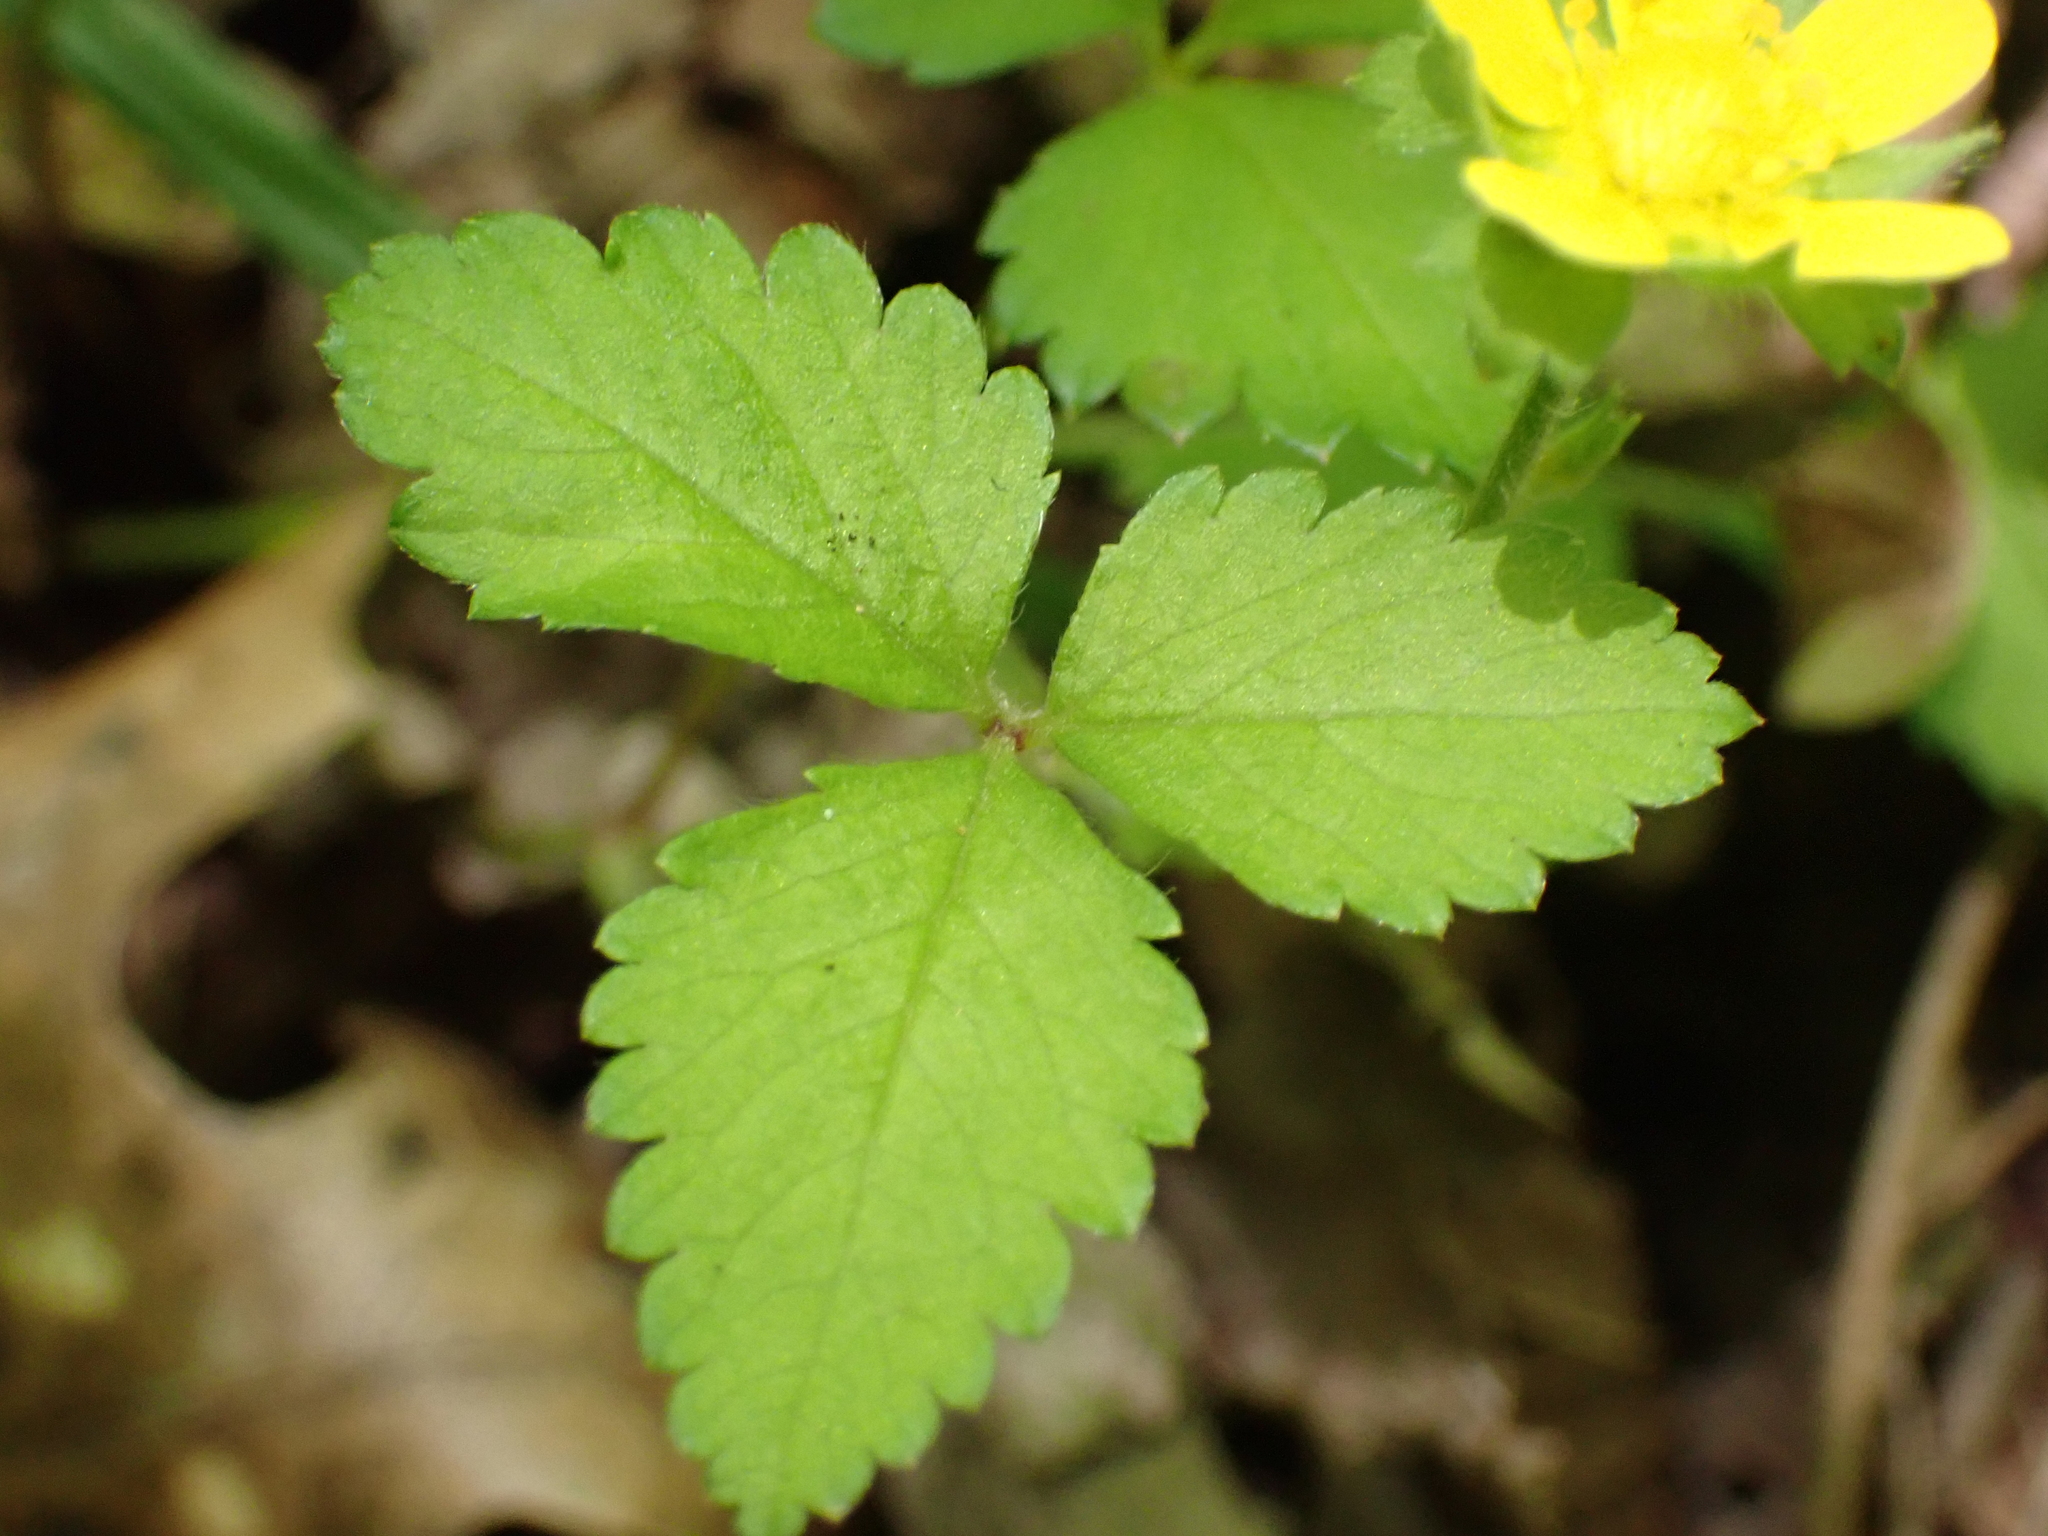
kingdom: Plantae
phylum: Tracheophyta
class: Magnoliopsida
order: Rosales
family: Rosaceae
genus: Potentilla
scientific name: Potentilla indica
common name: Yellow-flowered strawberry
